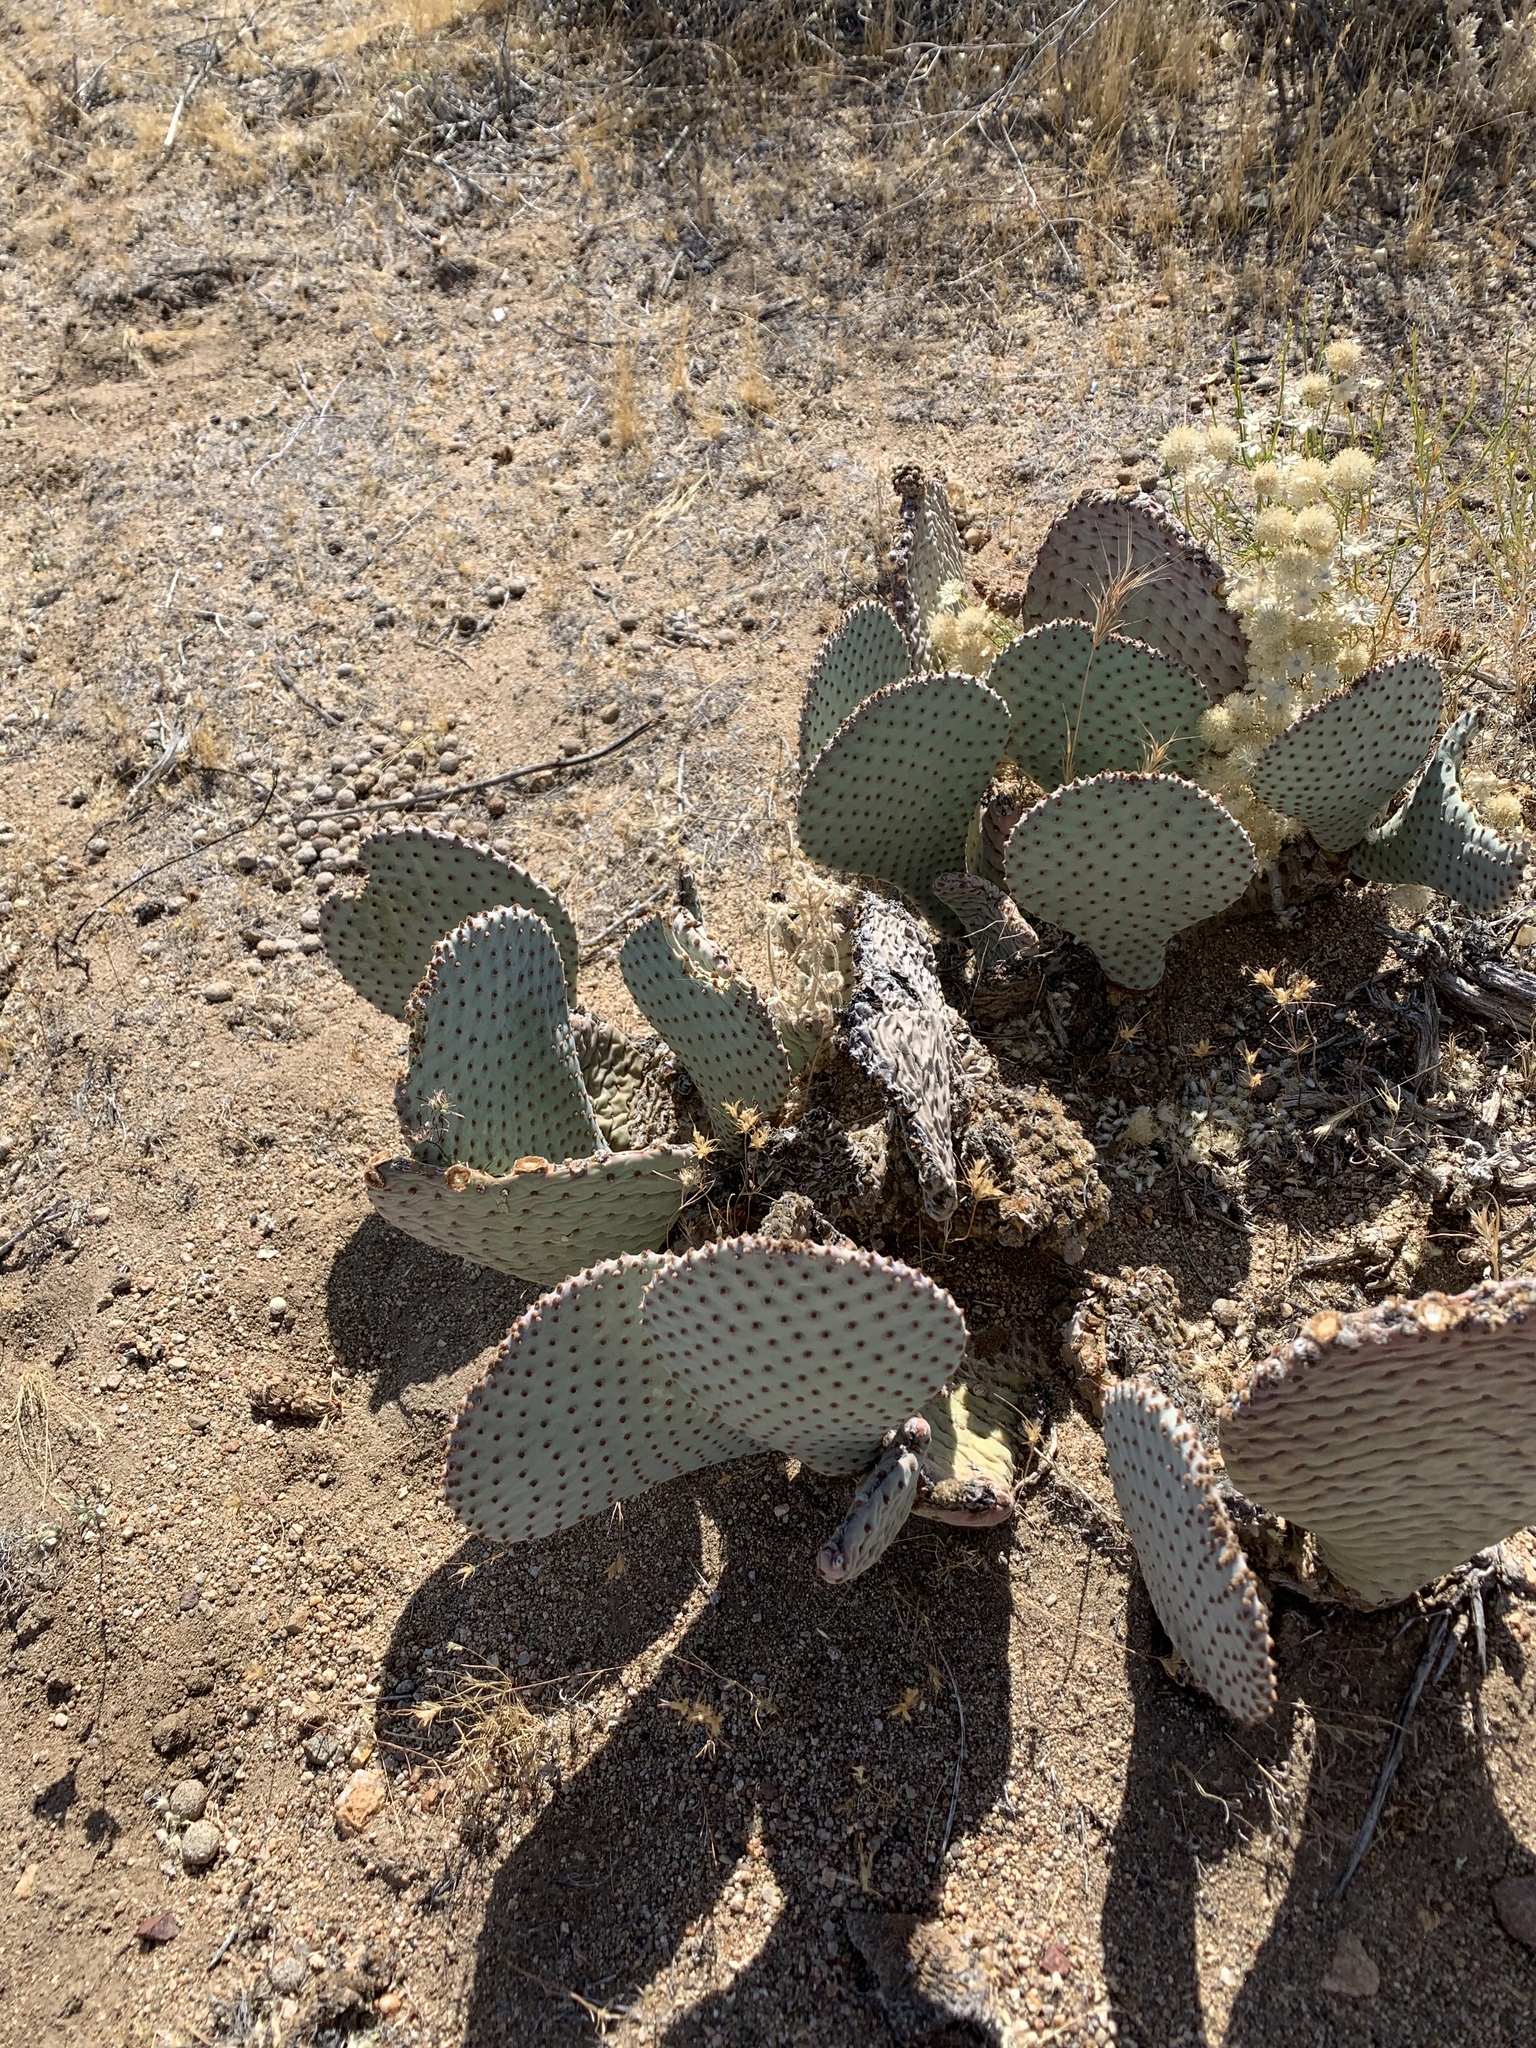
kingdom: Plantae
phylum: Tracheophyta
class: Magnoliopsida
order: Caryophyllales
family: Cactaceae
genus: Opuntia
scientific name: Opuntia basilaris
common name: Beavertail prickly-pear
